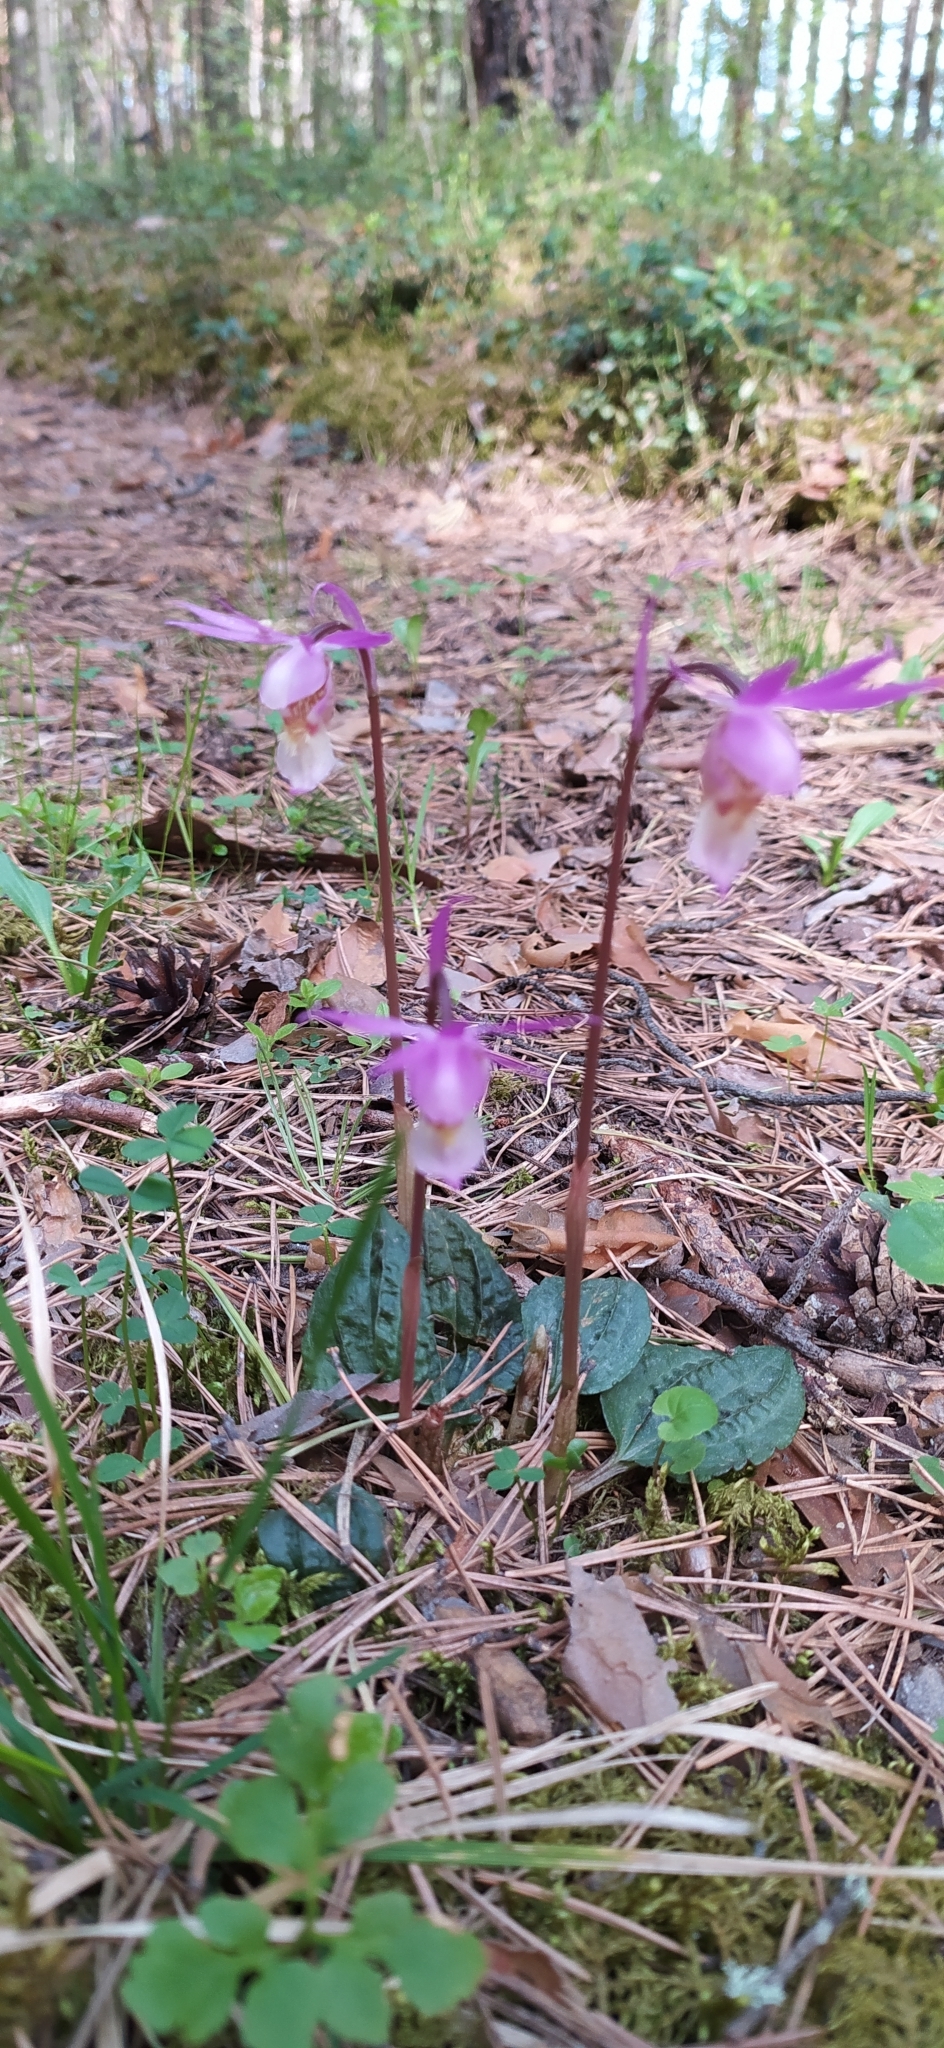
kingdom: Plantae
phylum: Tracheophyta
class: Liliopsida
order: Asparagales
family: Orchidaceae
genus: Calypso
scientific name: Calypso bulbosa
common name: Calypso
